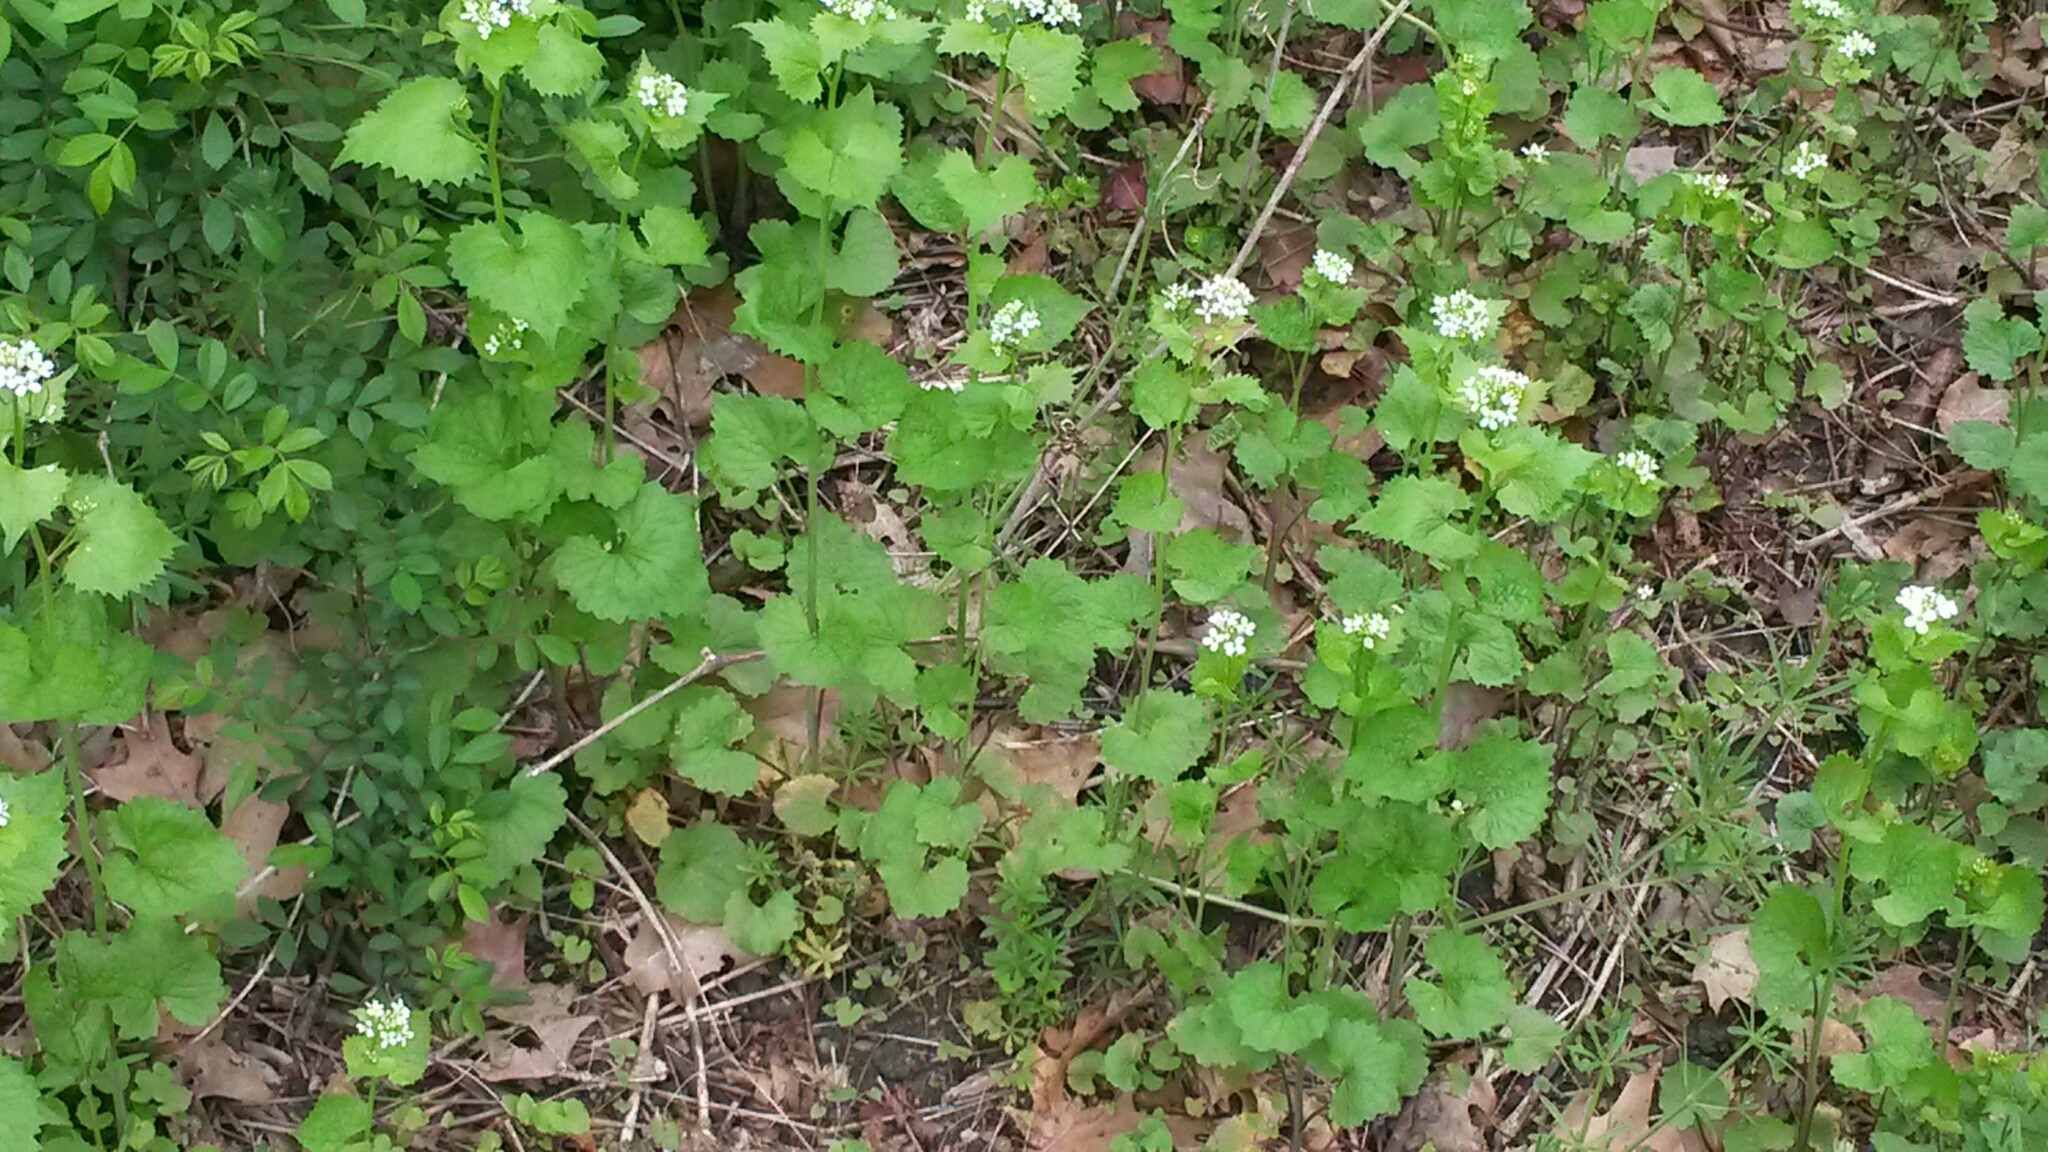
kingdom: Plantae
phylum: Tracheophyta
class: Magnoliopsida
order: Brassicales
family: Brassicaceae
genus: Alliaria
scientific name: Alliaria petiolata
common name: Garlic mustard
